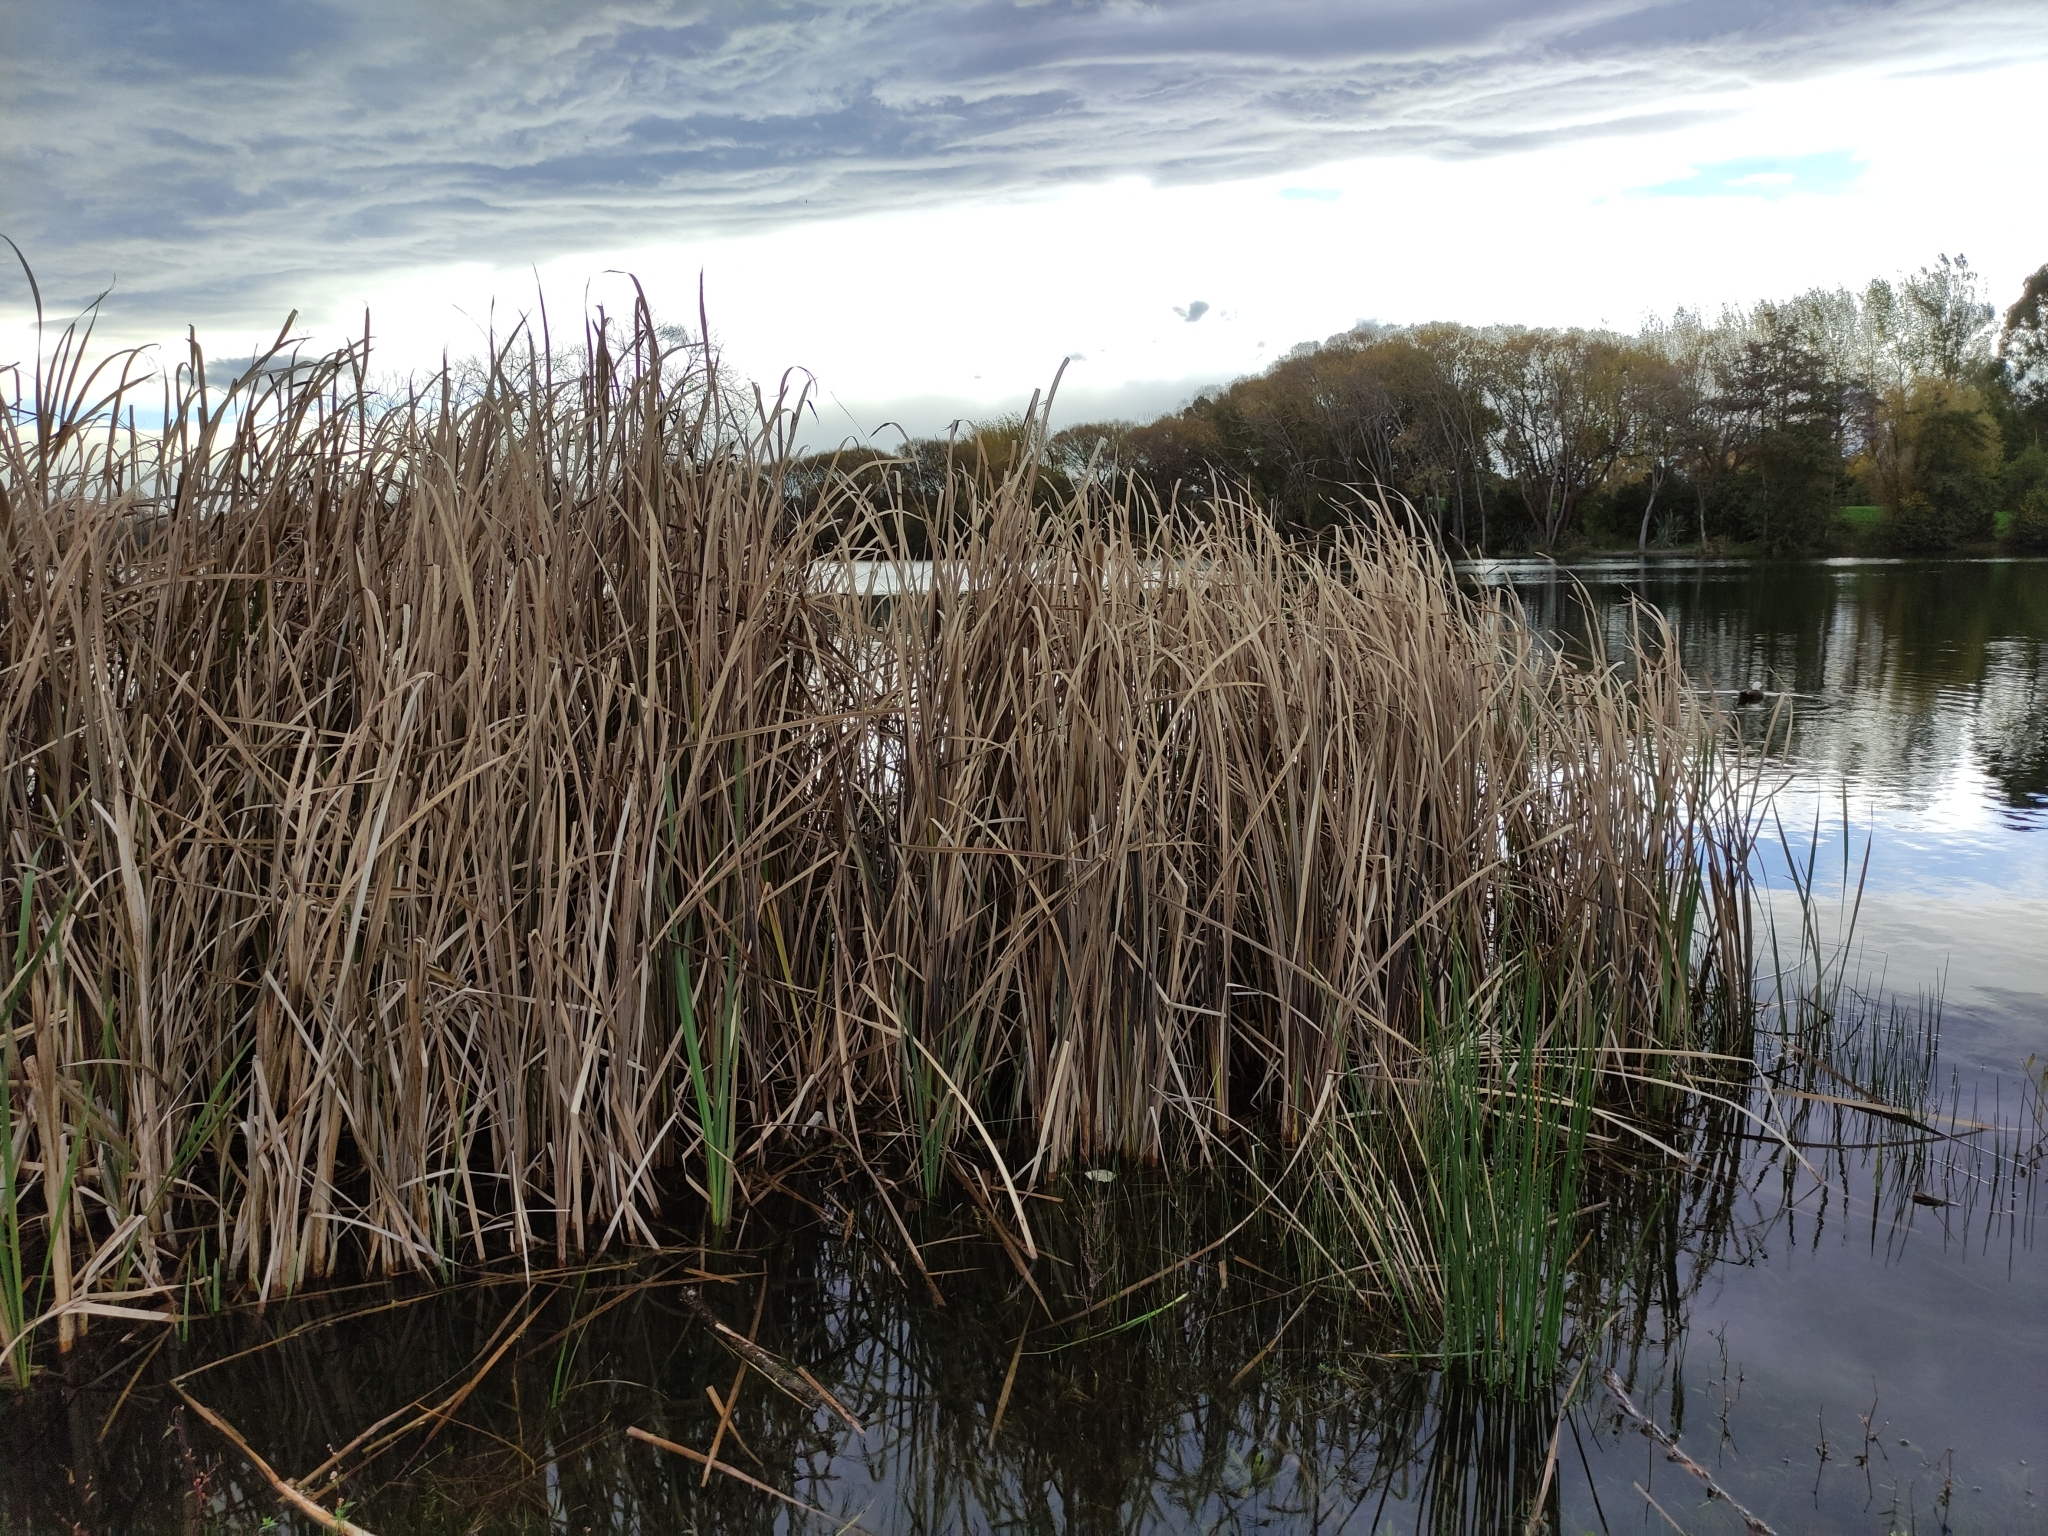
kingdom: Plantae
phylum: Tracheophyta
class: Liliopsida
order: Poales
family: Typhaceae
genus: Typha
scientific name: Typha orientalis
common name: Bullrush
